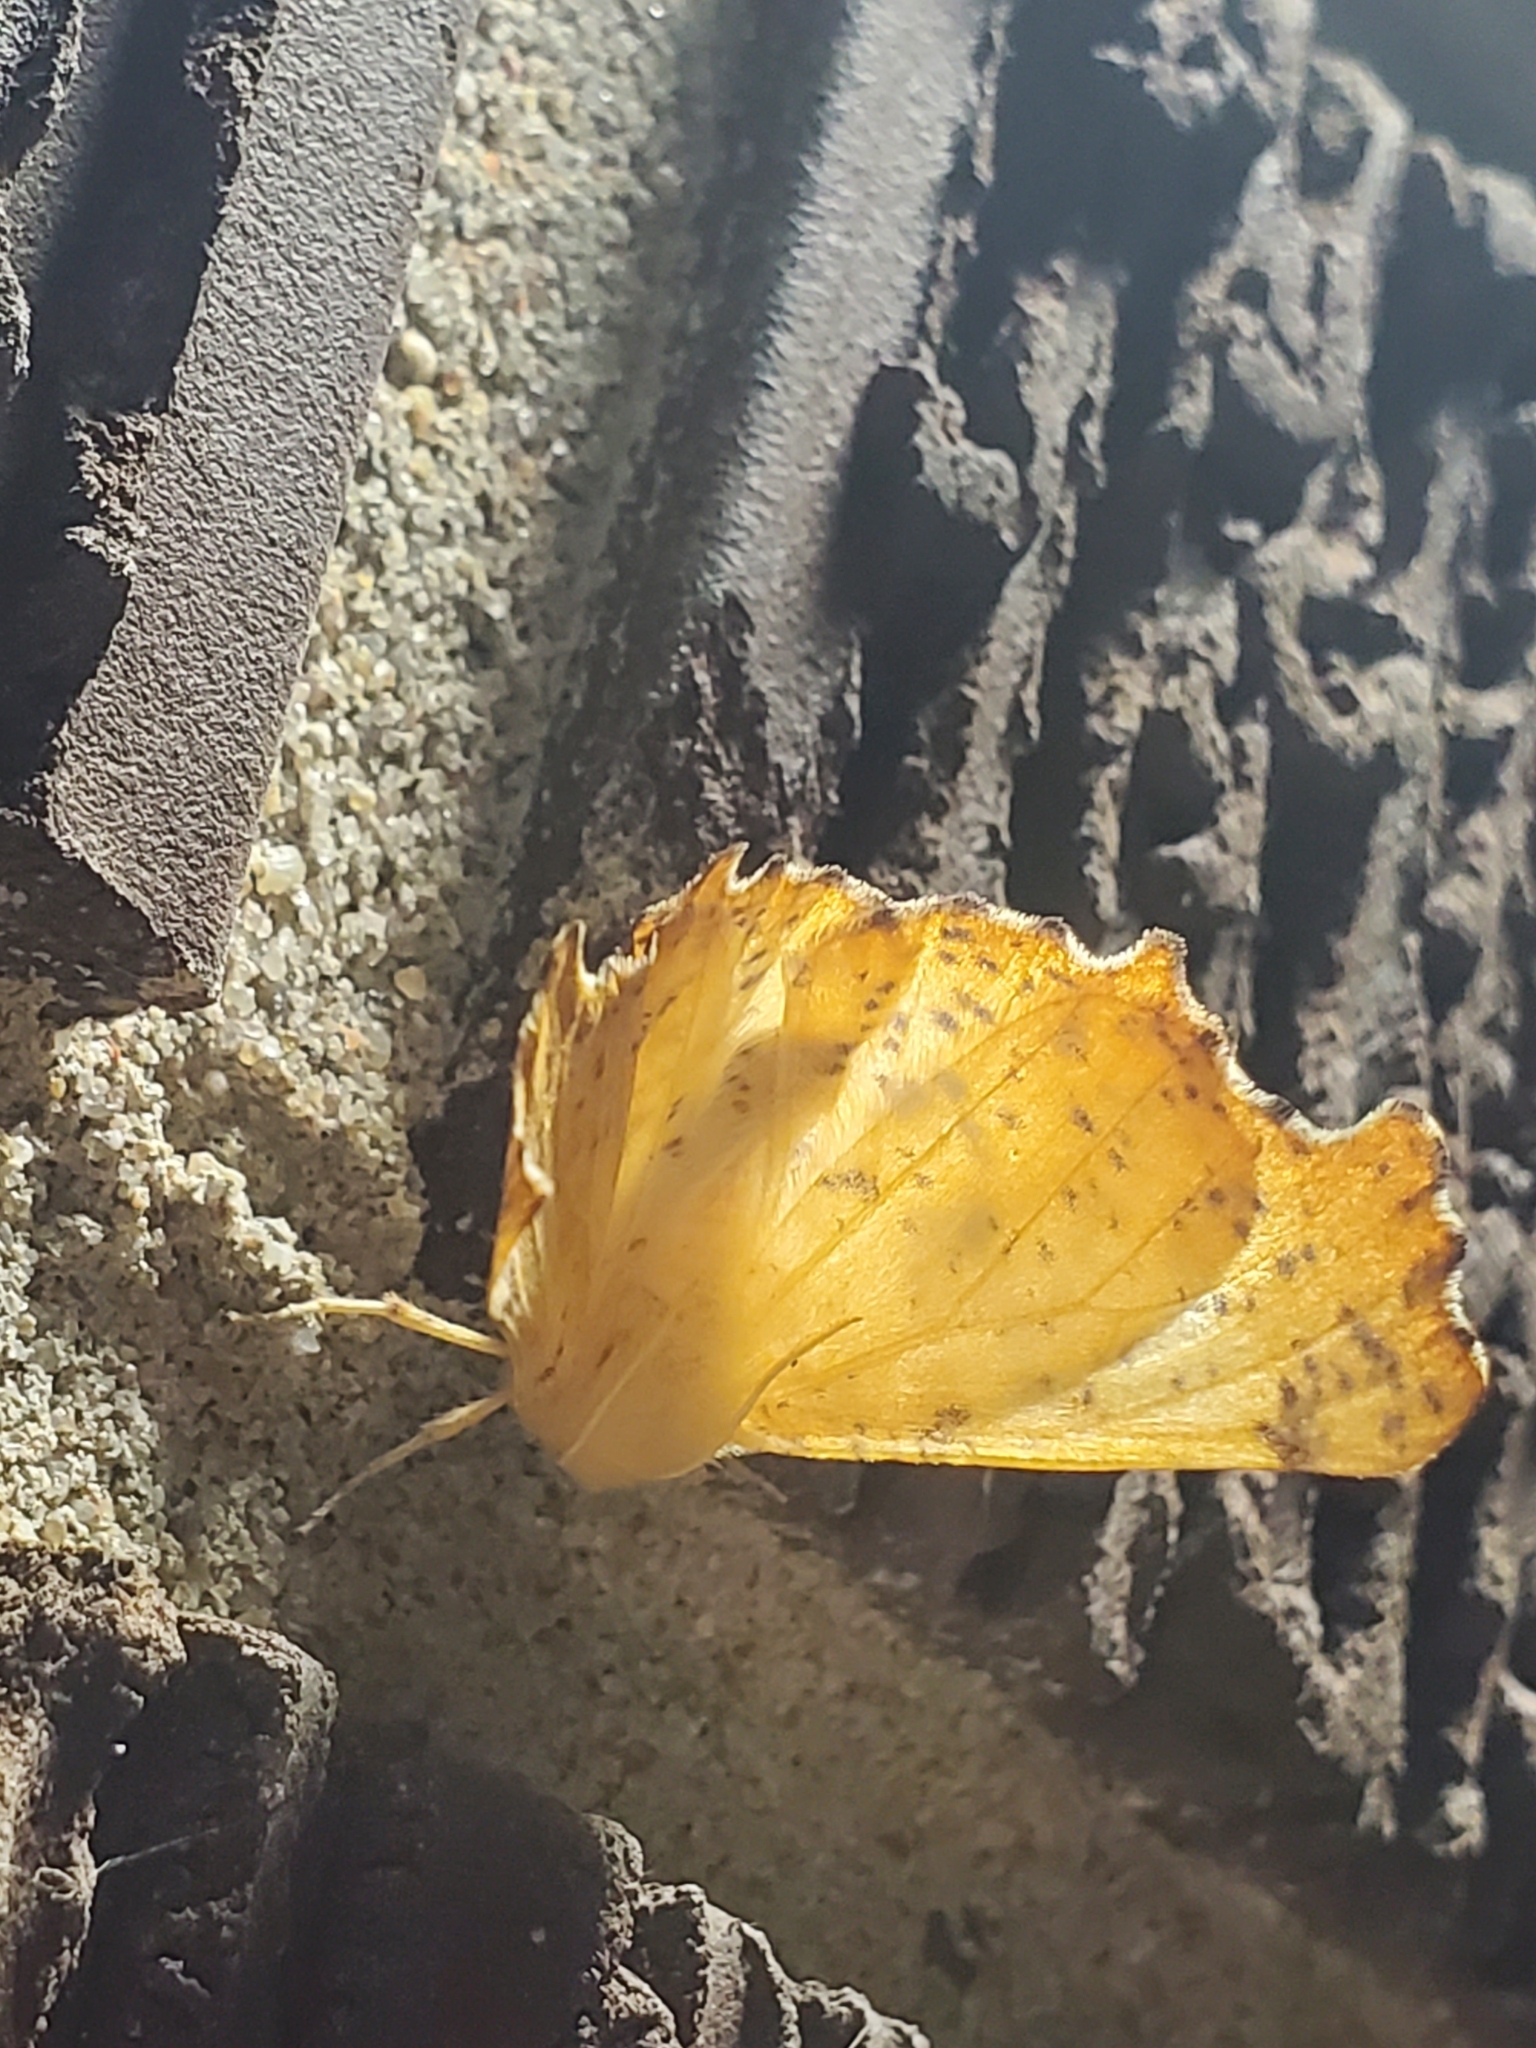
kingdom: Animalia
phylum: Arthropoda
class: Insecta
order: Lepidoptera
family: Geometridae
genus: Ennomos
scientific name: Ennomos magnaria
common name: Maple spanworm
